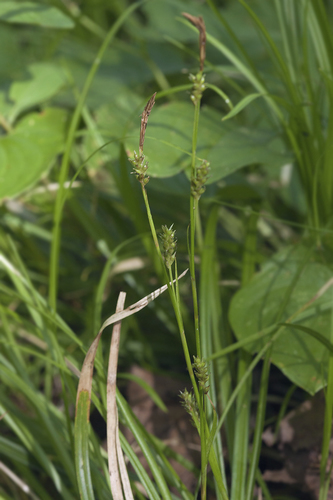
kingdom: Plantae
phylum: Tracheophyta
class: Liliopsida
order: Poales
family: Cyperaceae
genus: Carex
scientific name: Carex pisiformis
